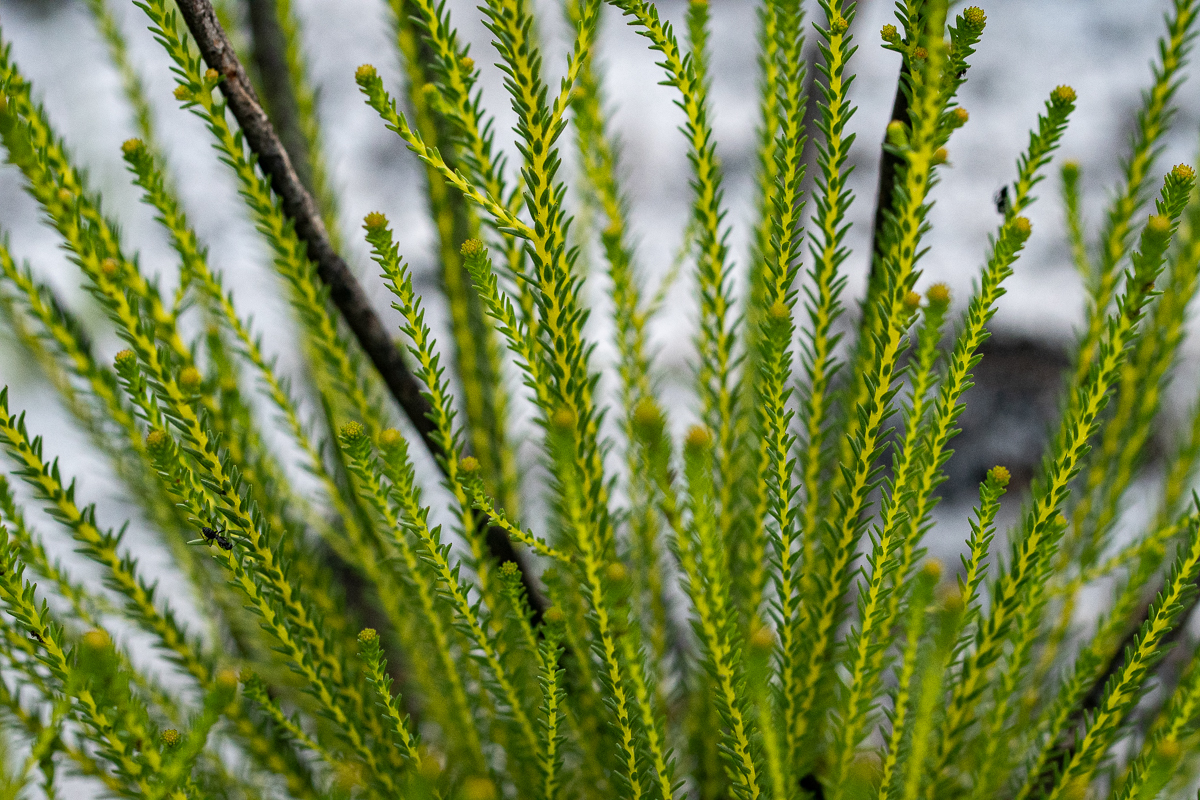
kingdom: Plantae
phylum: Tracheophyta
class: Magnoliopsida
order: Bruniales
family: Bruniaceae
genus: Berzelia
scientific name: Berzelia abrotanoides
